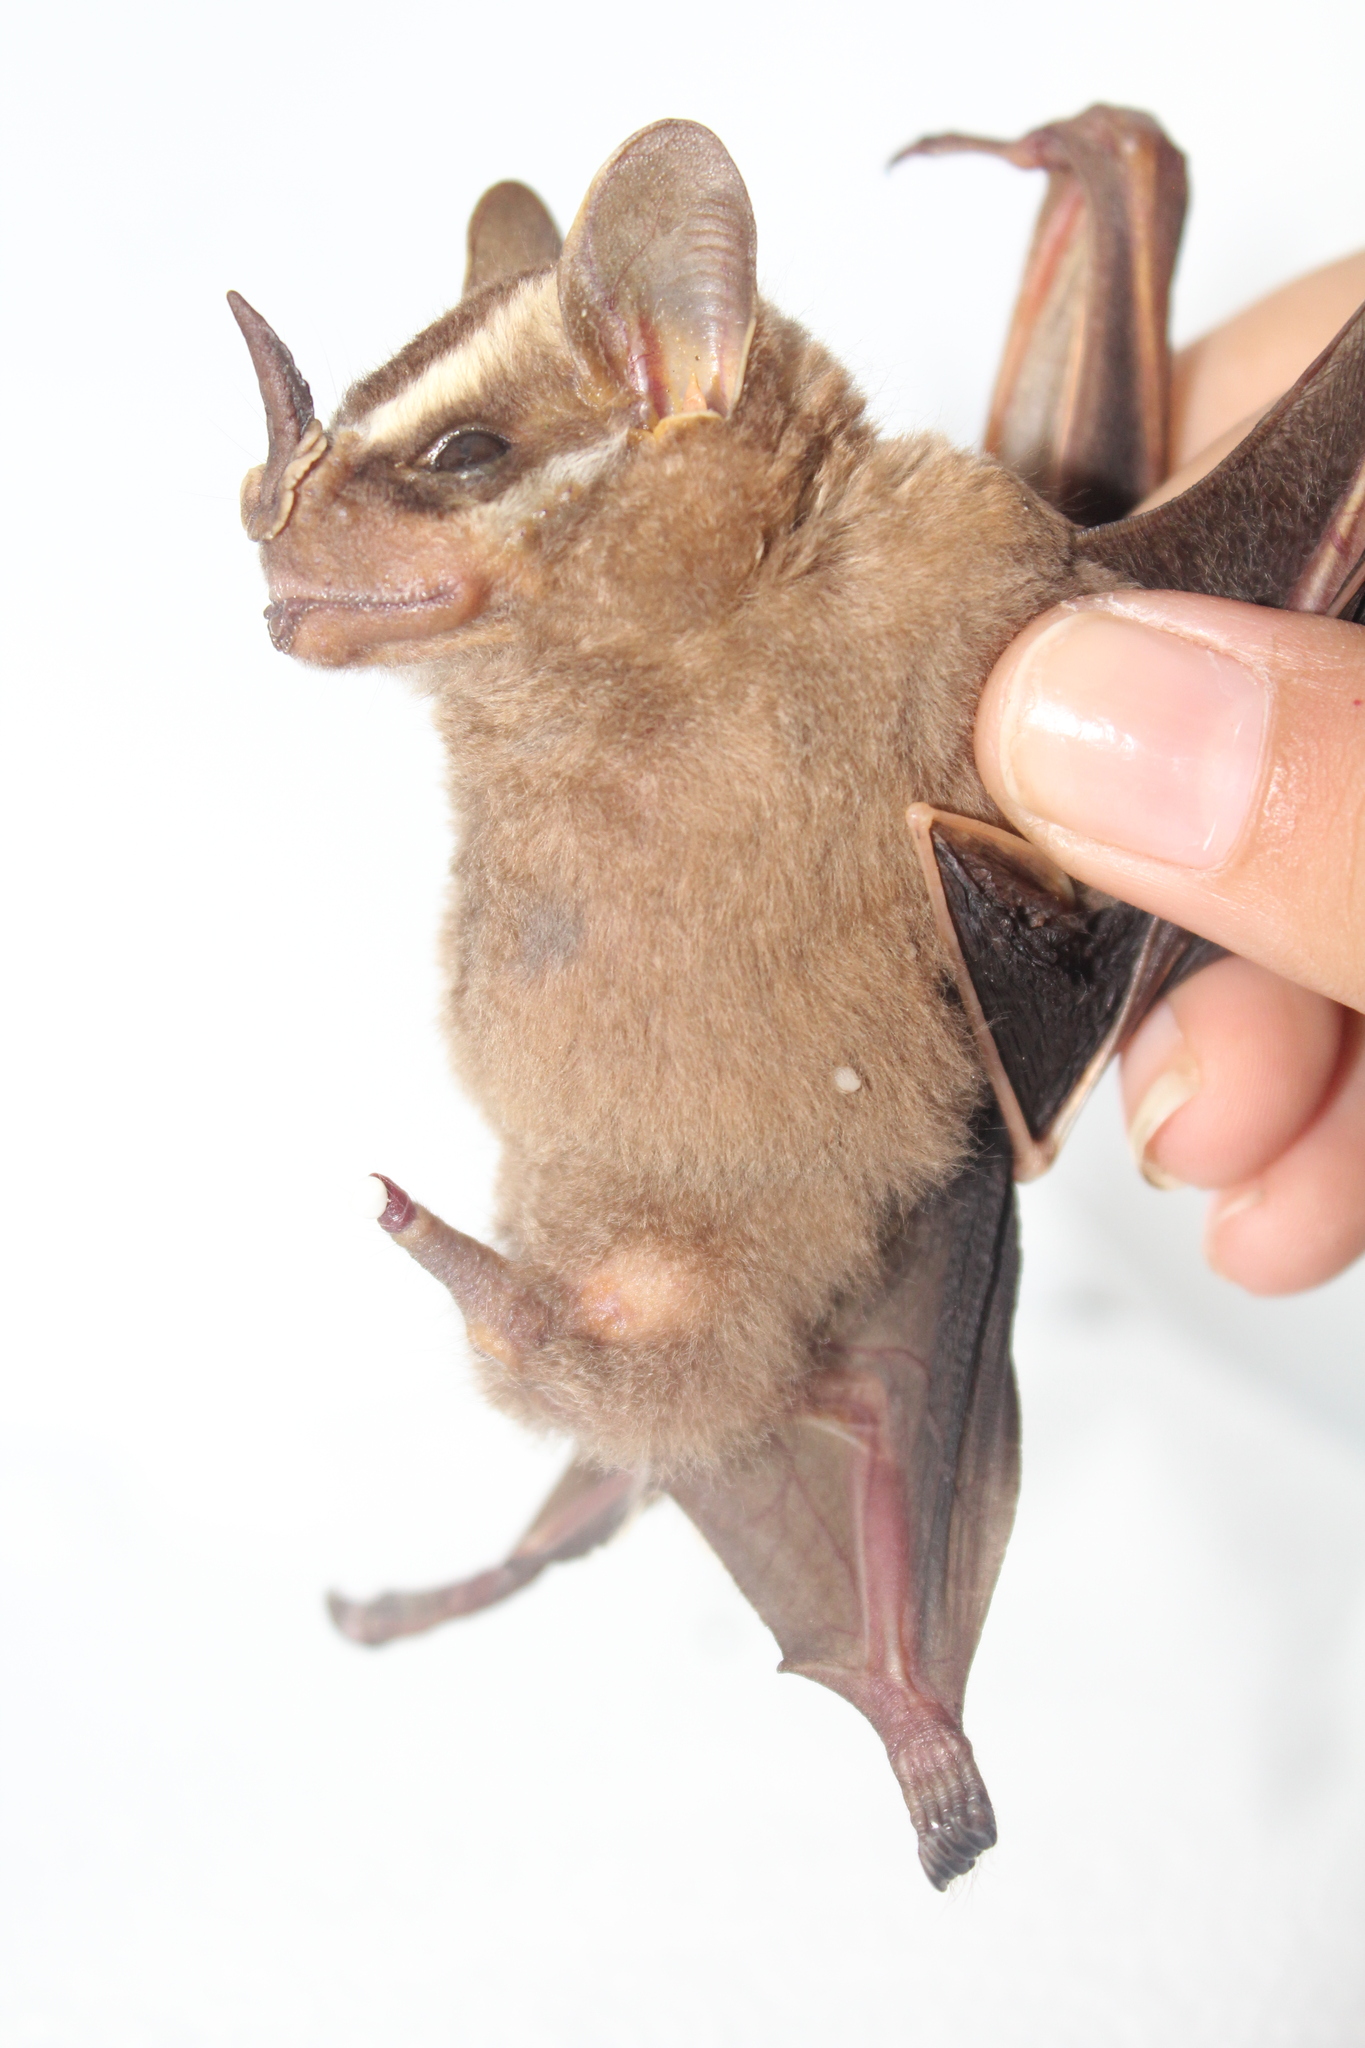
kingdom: Animalia
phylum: Chordata
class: Mammalia
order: Chiroptera
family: Phyllostomidae
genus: Vampyrodes
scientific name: Vampyrodes major
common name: Great stripe-faced bat
